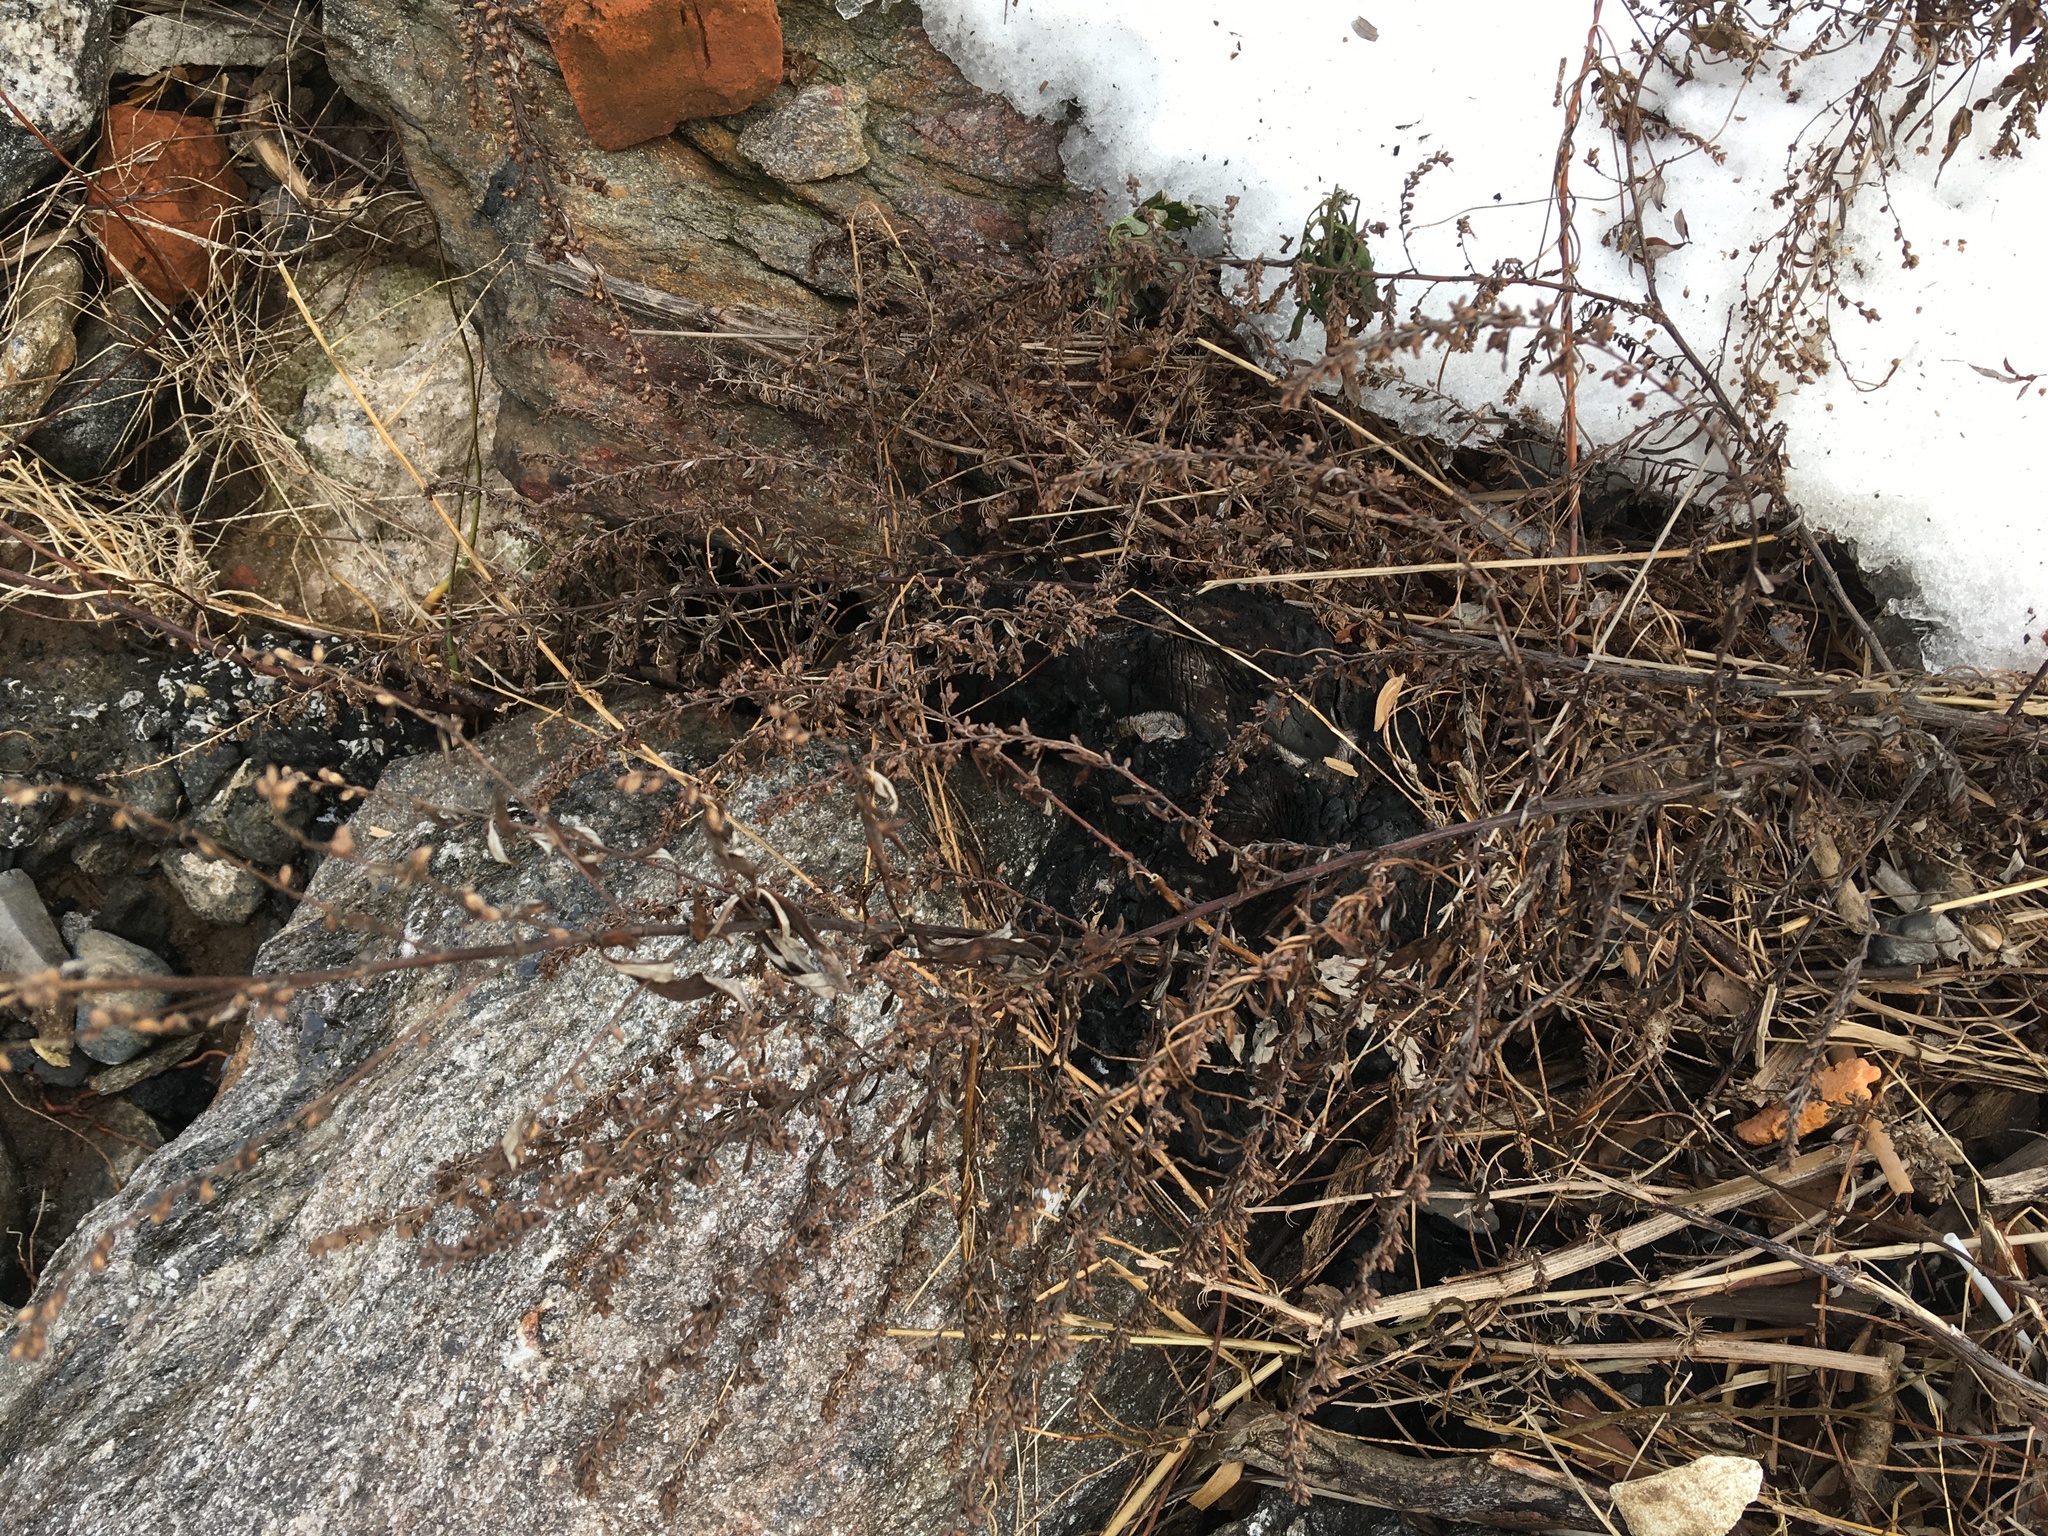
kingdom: Plantae
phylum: Tracheophyta
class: Magnoliopsida
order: Asterales
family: Asteraceae
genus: Artemisia
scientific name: Artemisia vulgaris
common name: Mugwort
